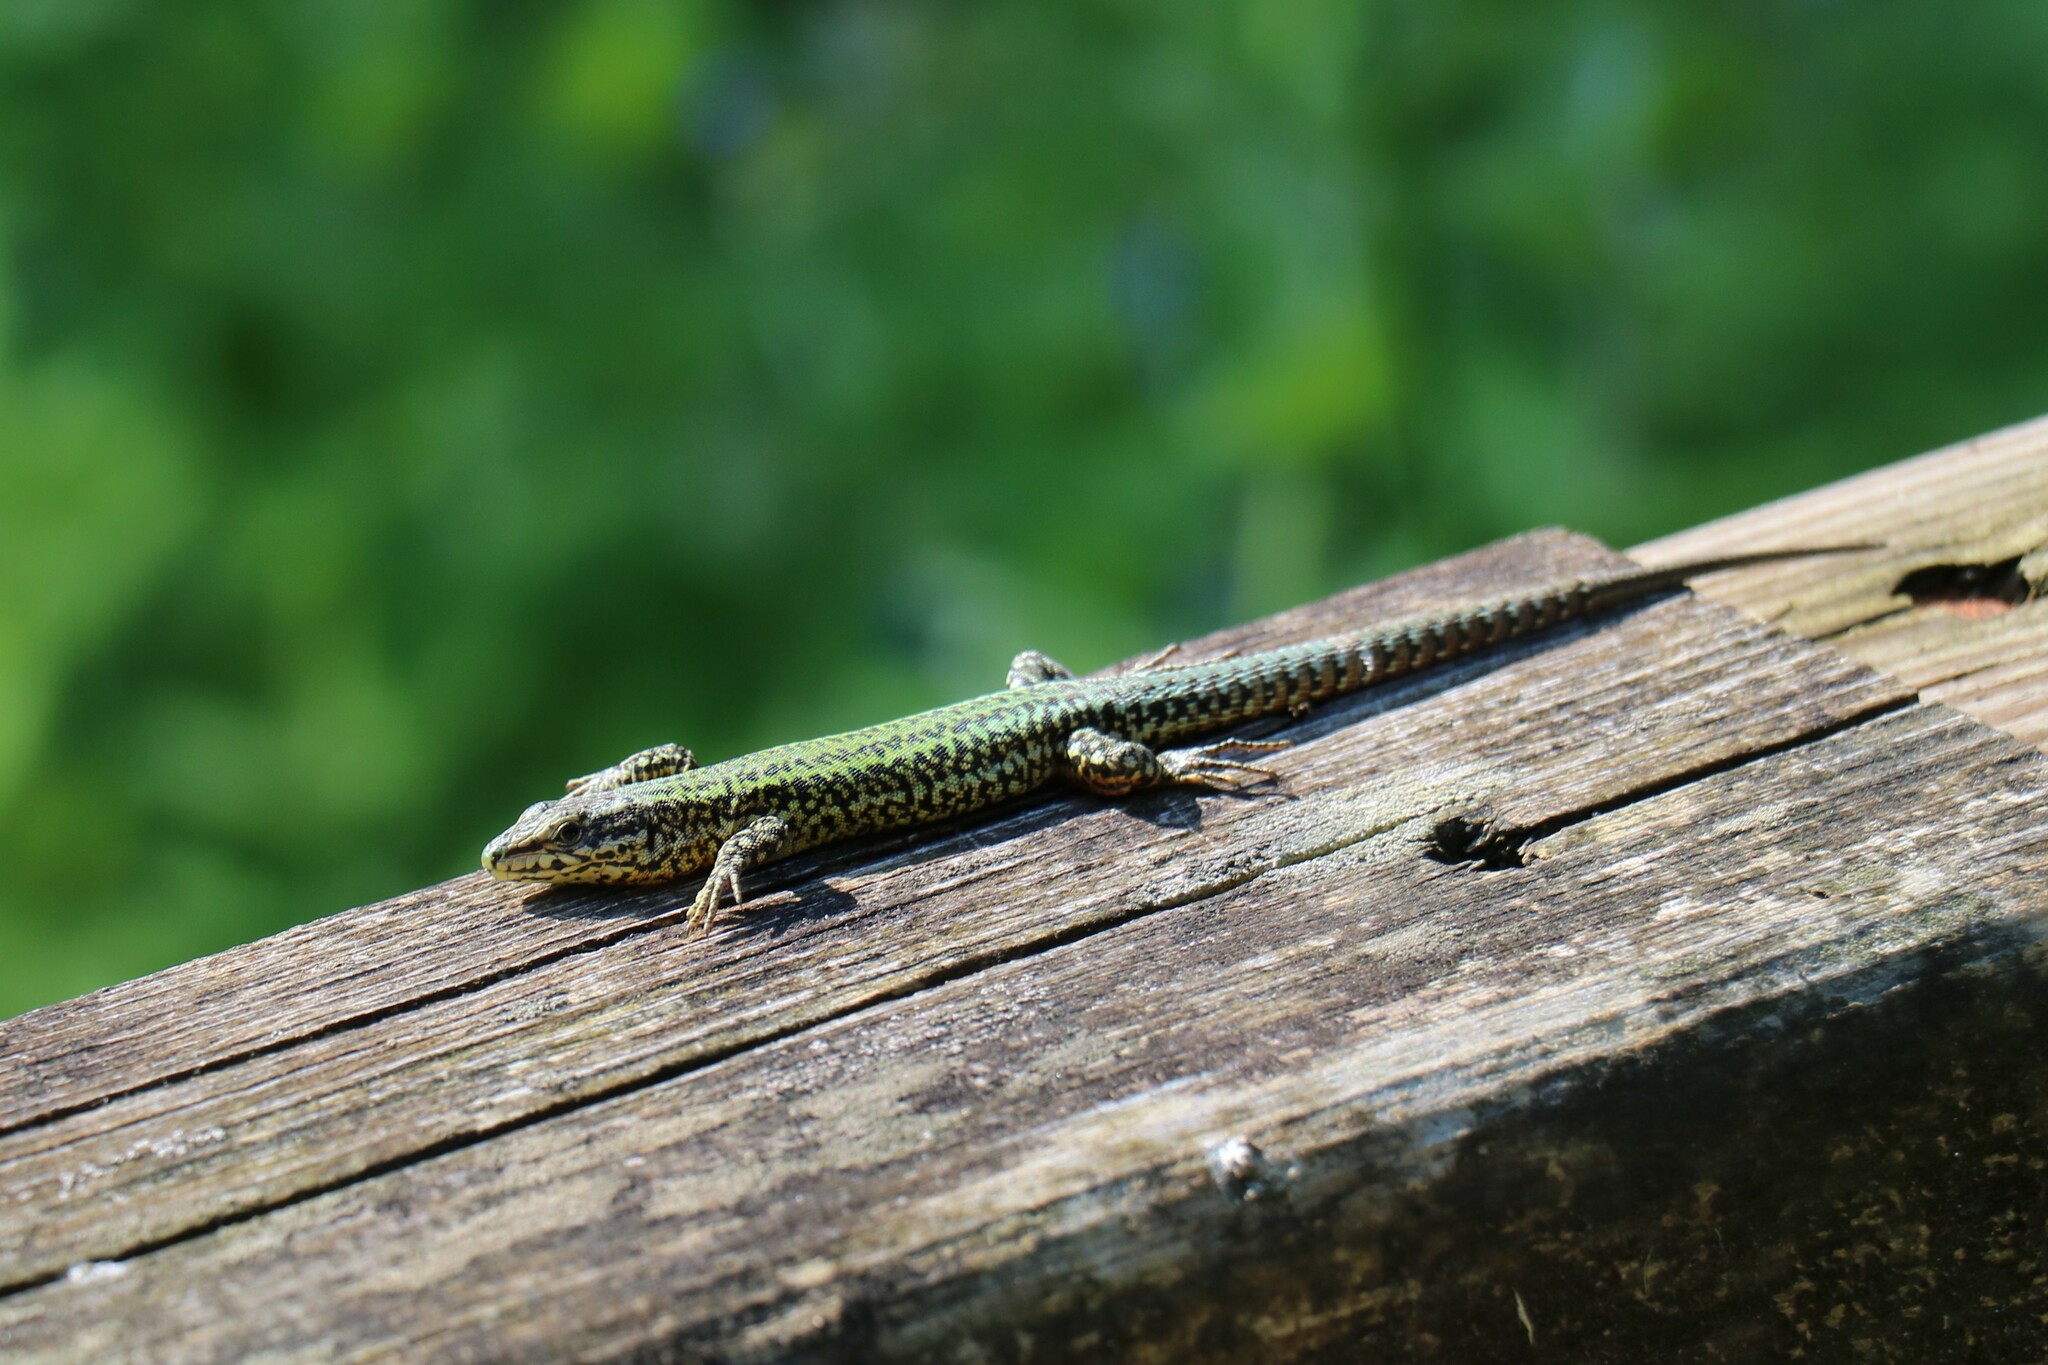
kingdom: Animalia
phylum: Chordata
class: Squamata
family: Lacertidae
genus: Podarcis
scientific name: Podarcis bocagei
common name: Bocage's wall lizard
